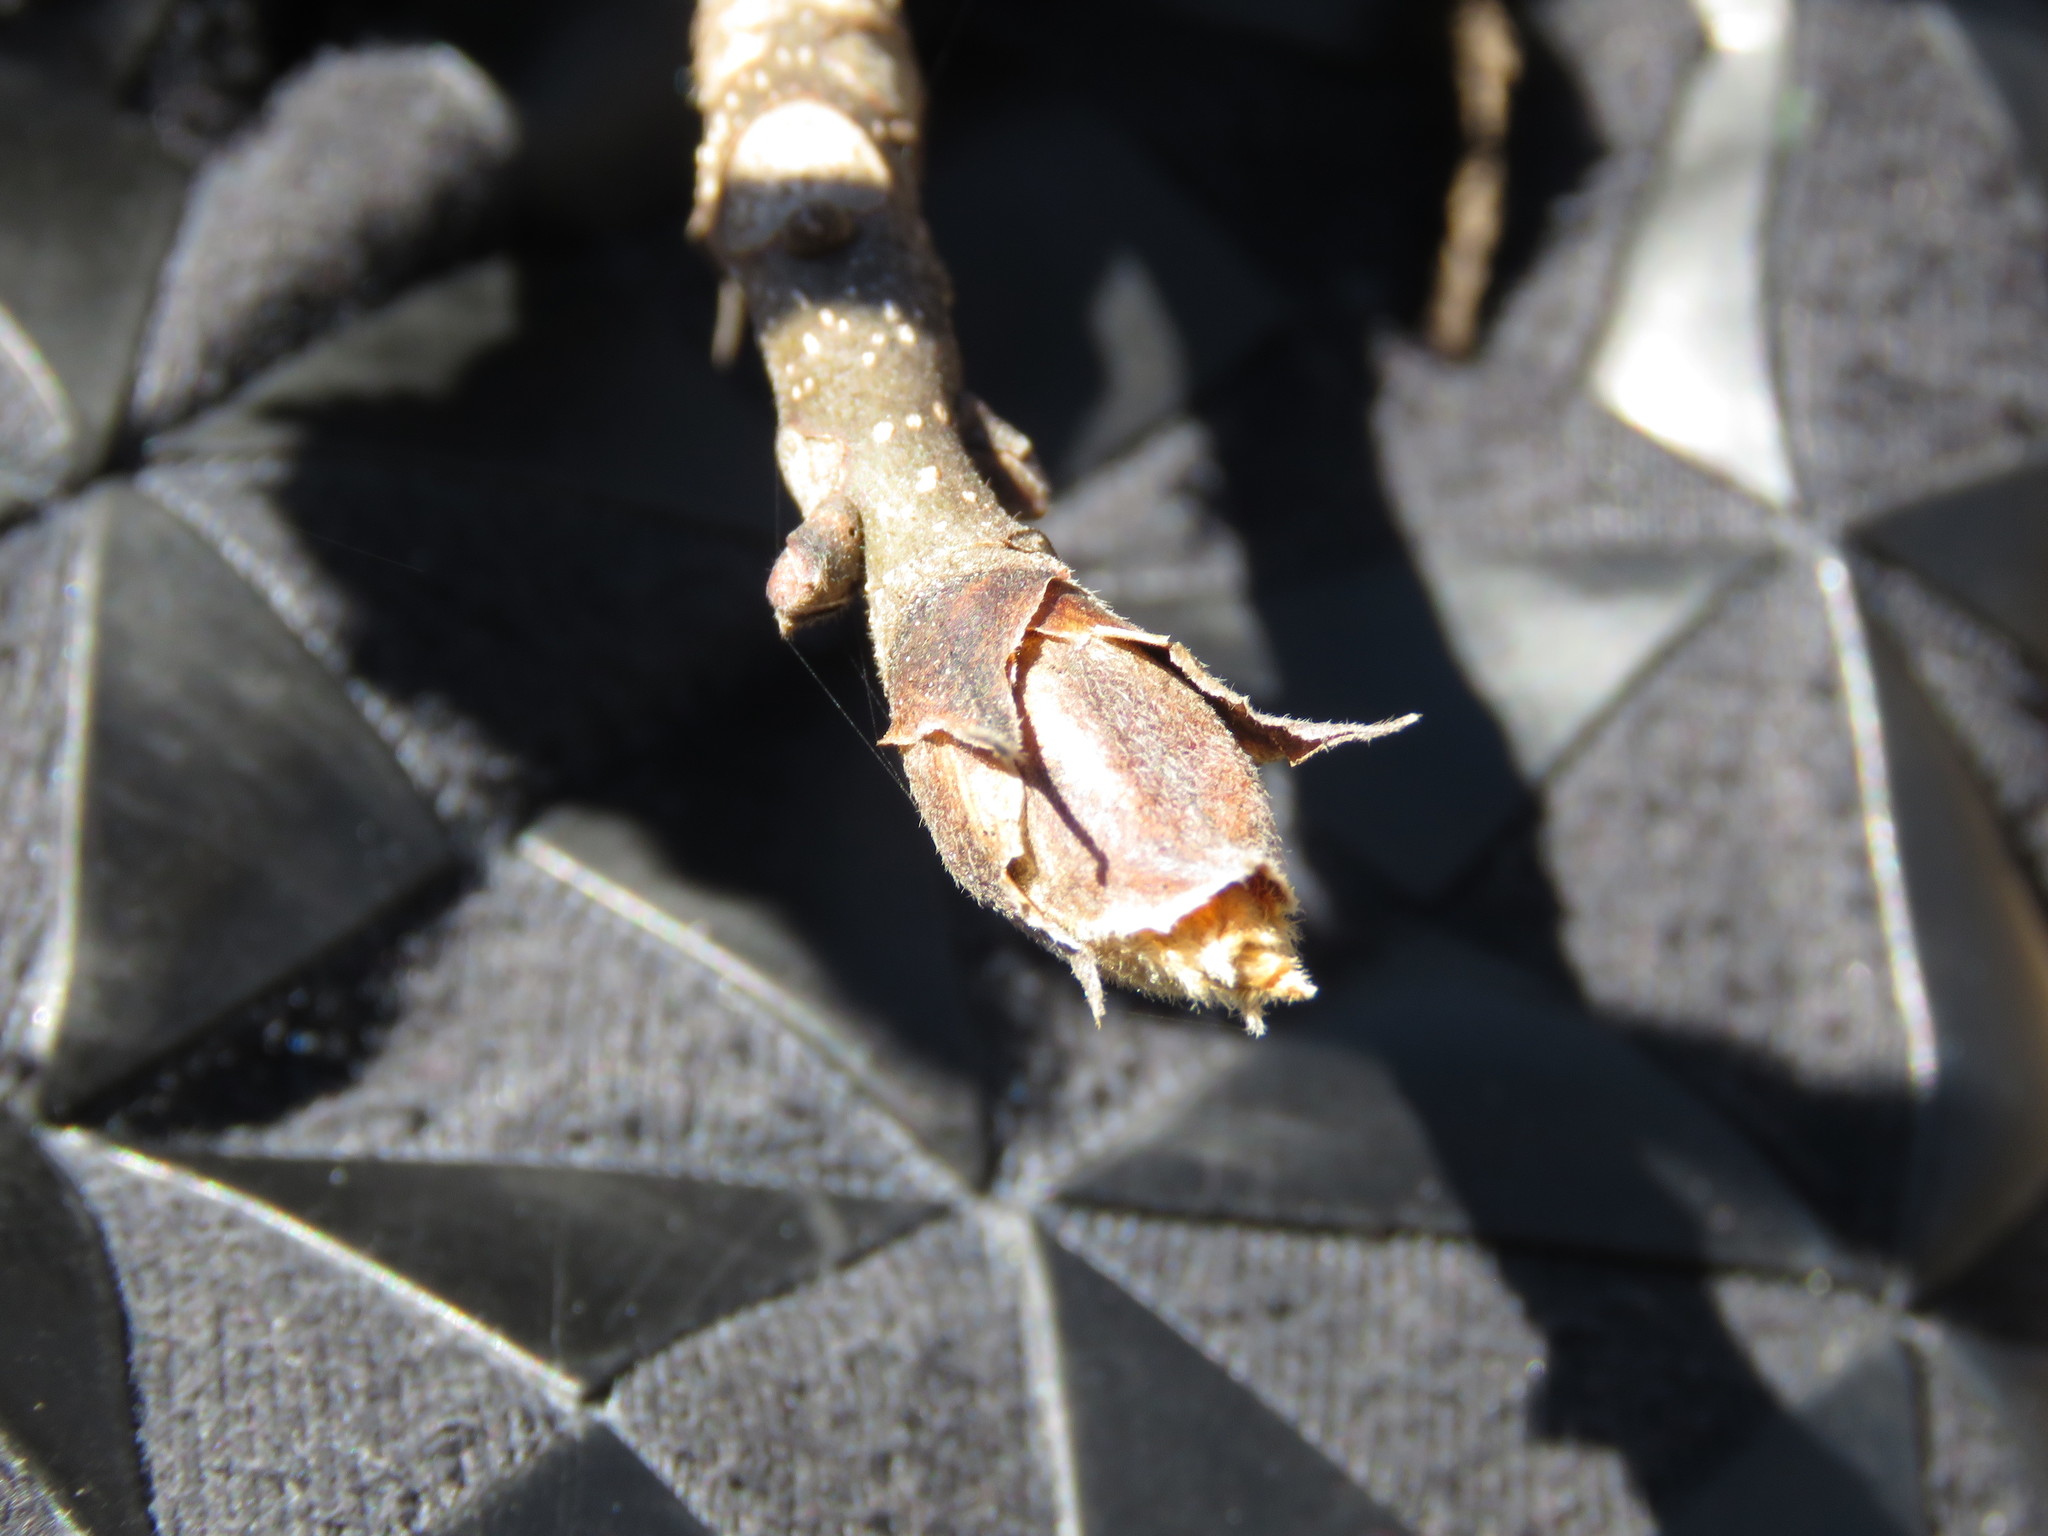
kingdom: Plantae
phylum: Tracheophyta
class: Magnoliopsida
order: Fagales
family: Juglandaceae
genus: Carya
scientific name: Carya ovata
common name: Shagbark hickory
